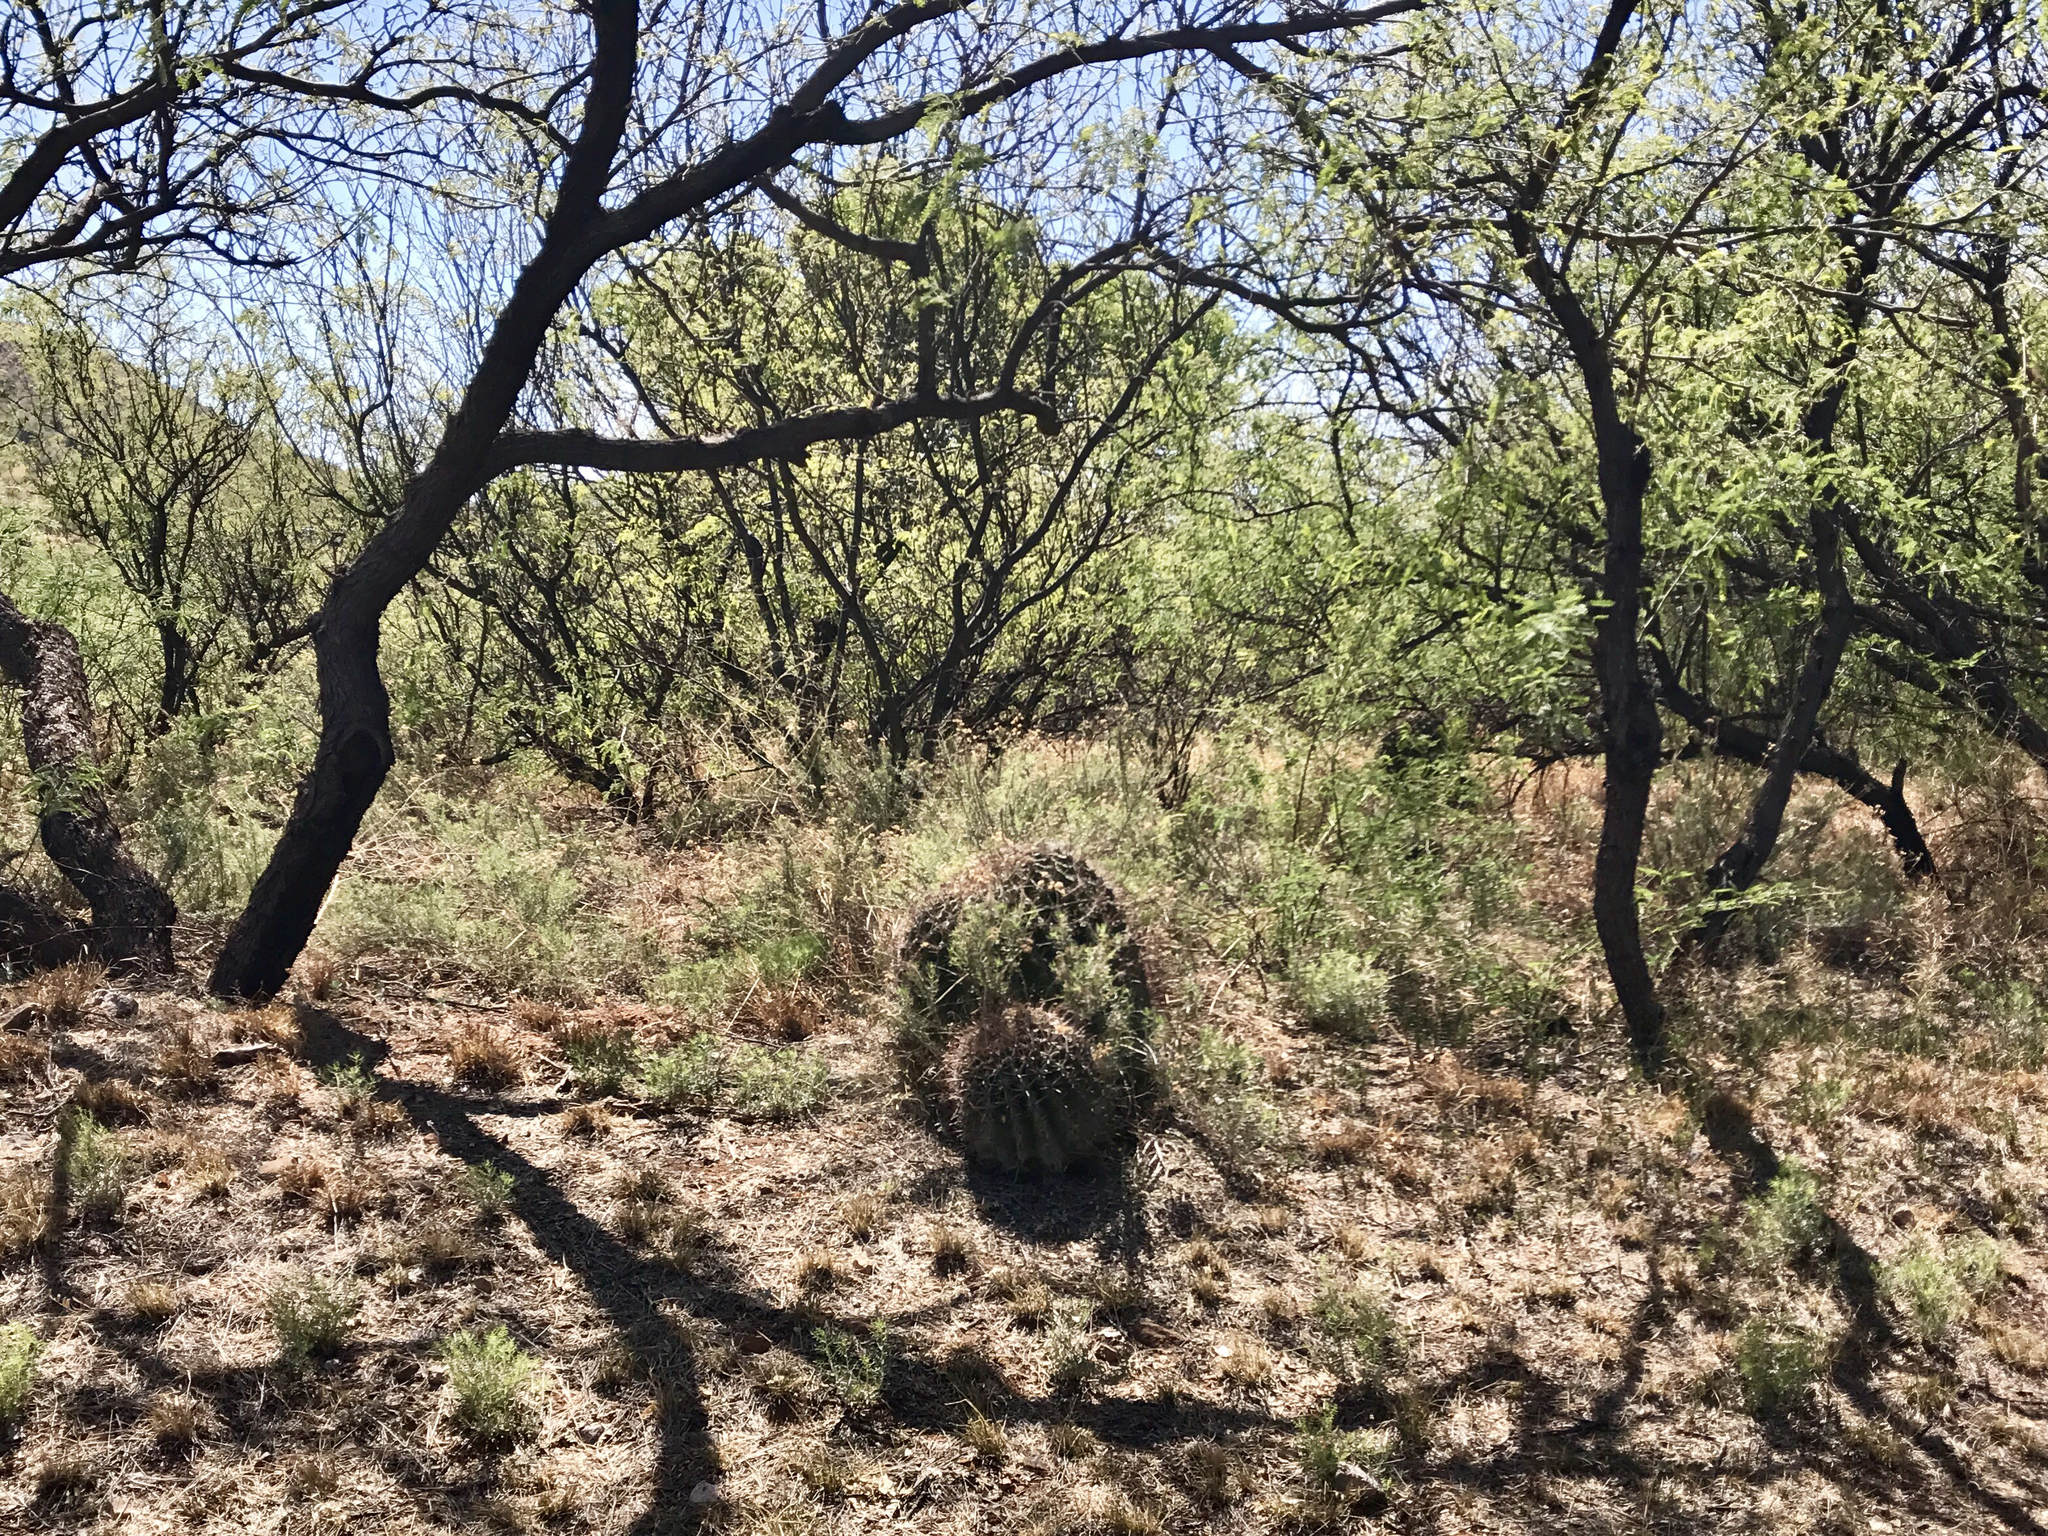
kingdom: Plantae
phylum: Tracheophyta
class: Magnoliopsida
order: Caryophyllales
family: Cactaceae
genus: Ferocactus
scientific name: Ferocactus wislizeni
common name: Candy barrel cactus
